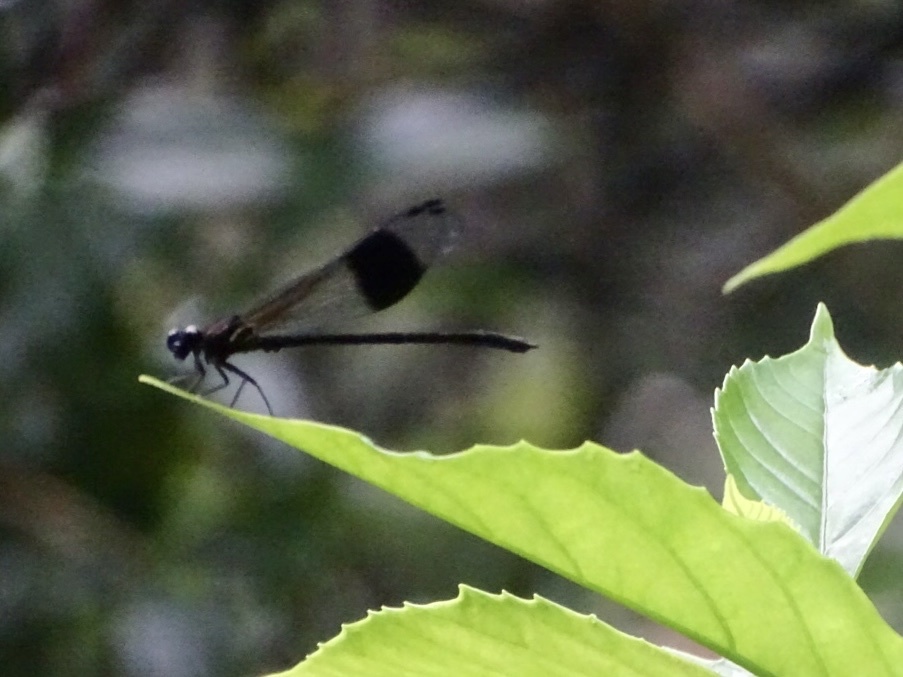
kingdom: Animalia
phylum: Arthropoda
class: Insecta
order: Odonata
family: Euphaeidae
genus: Euphaea
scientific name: Euphaea decorata
